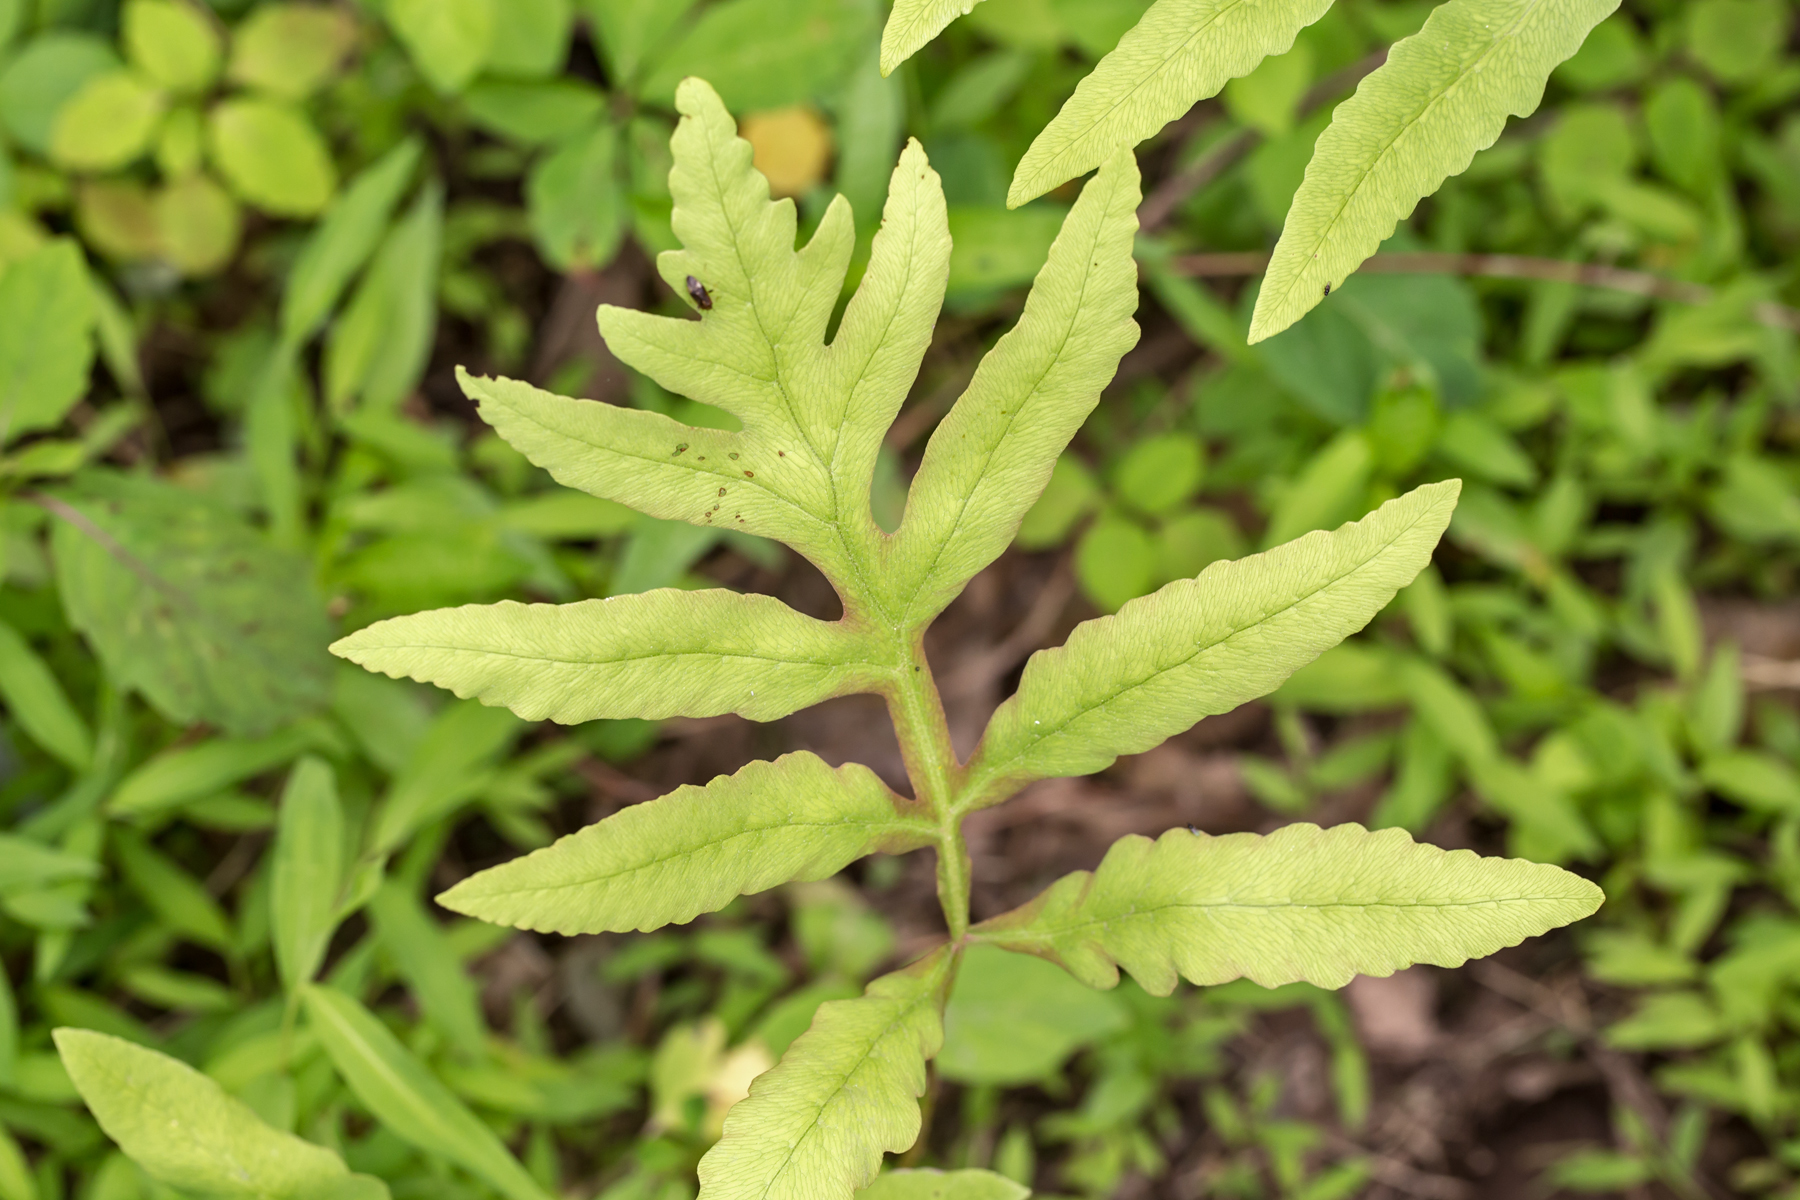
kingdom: Plantae
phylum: Tracheophyta
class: Polypodiopsida
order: Polypodiales
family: Onocleaceae
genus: Onoclea
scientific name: Onoclea sensibilis
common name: Sensitive fern
